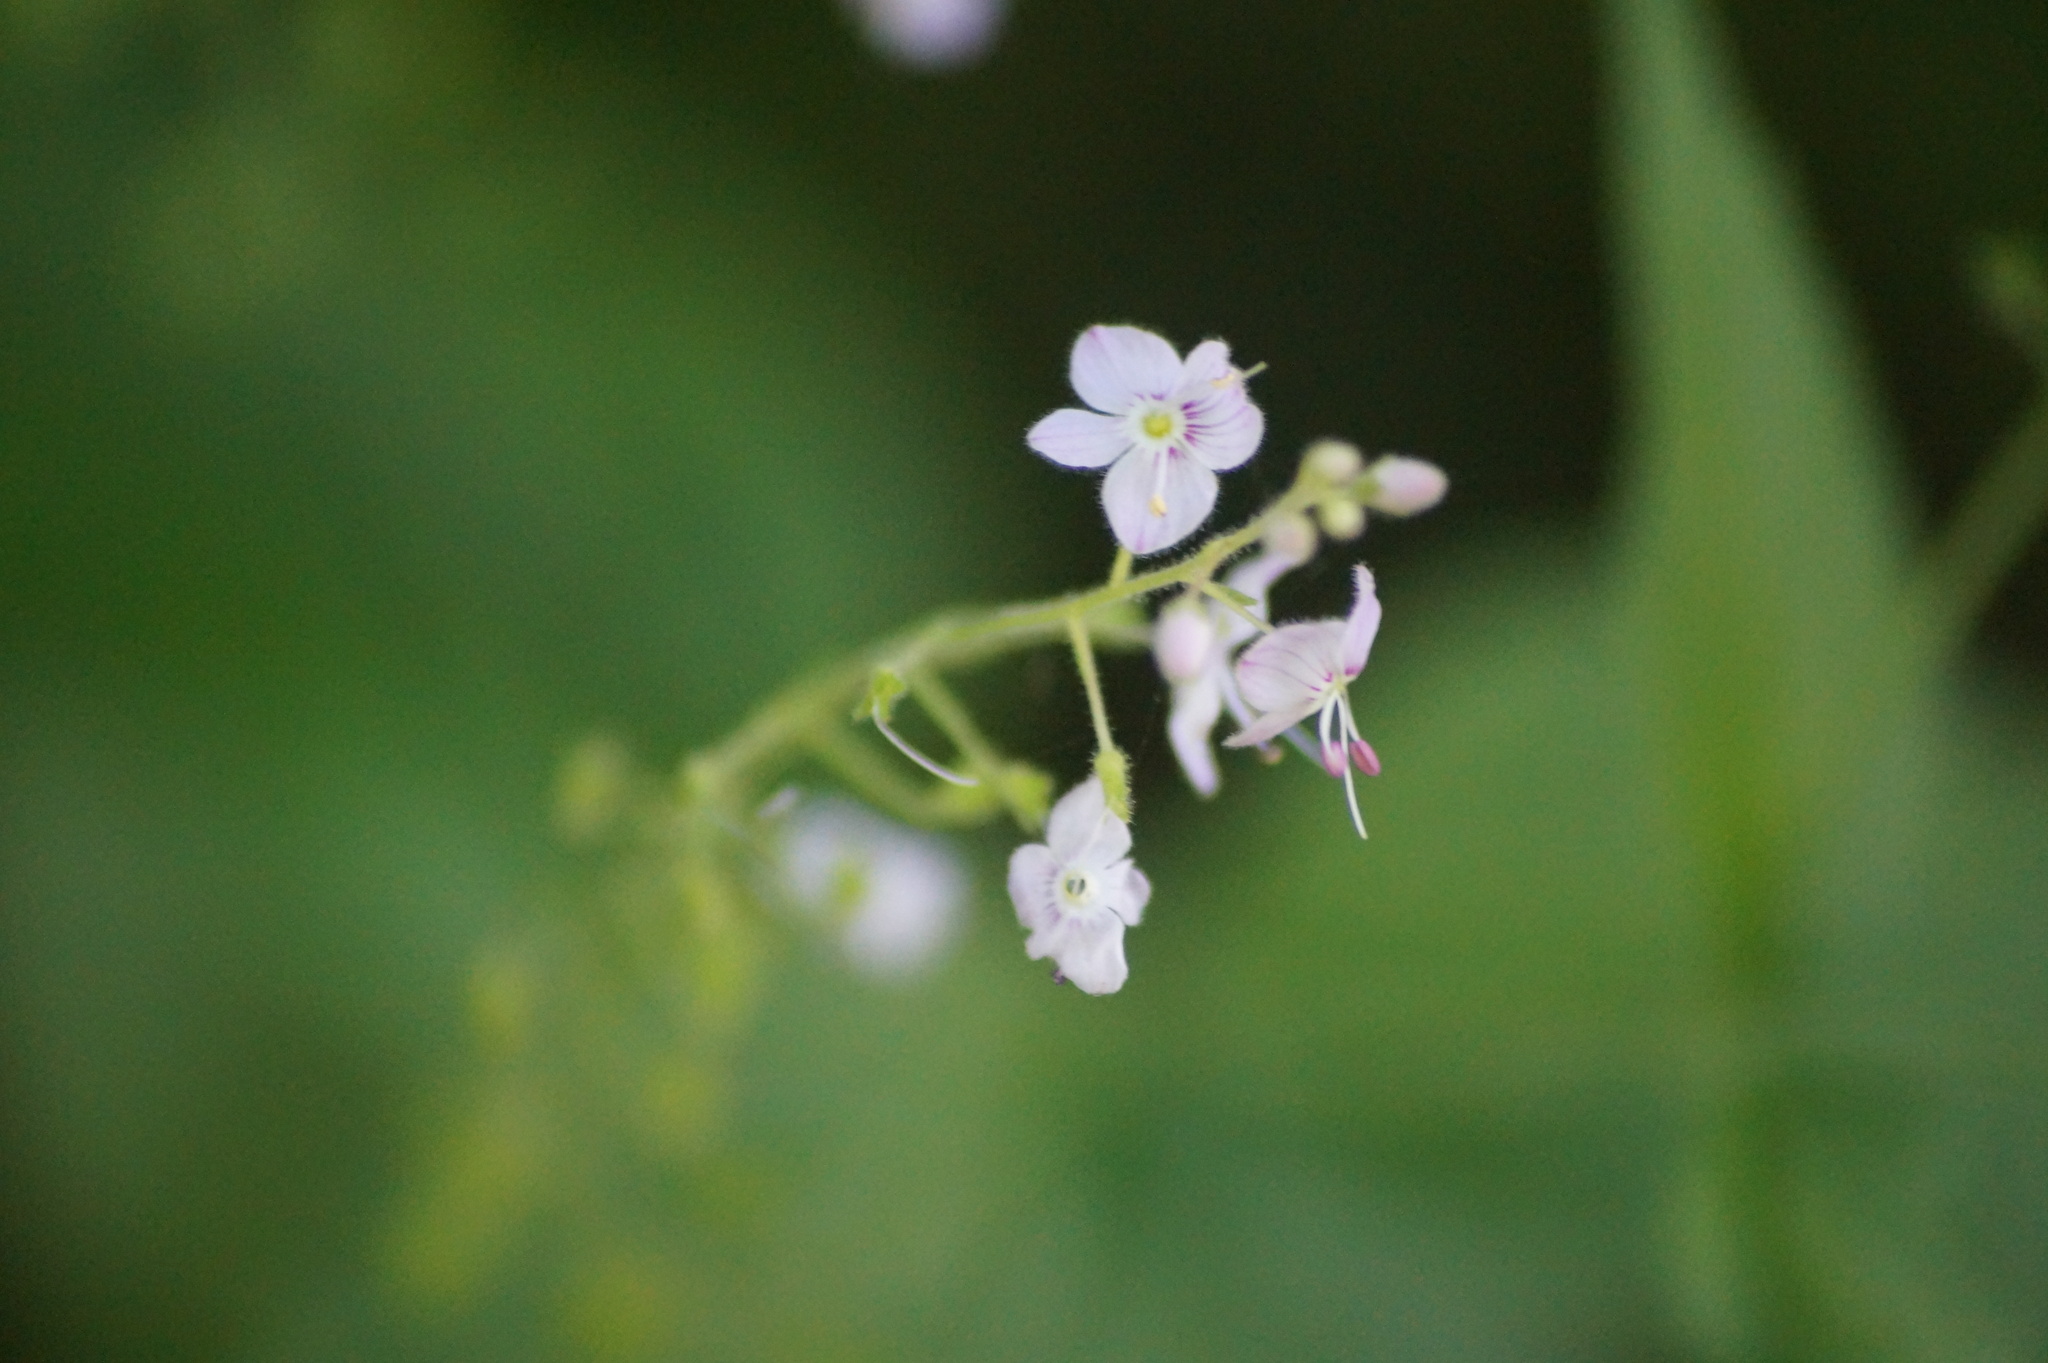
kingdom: Plantae
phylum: Tracheophyta
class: Magnoliopsida
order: Lamiales
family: Plantaginaceae
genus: Veronica
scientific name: Veronica urticifolia
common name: Nettle-leaf speedwell
